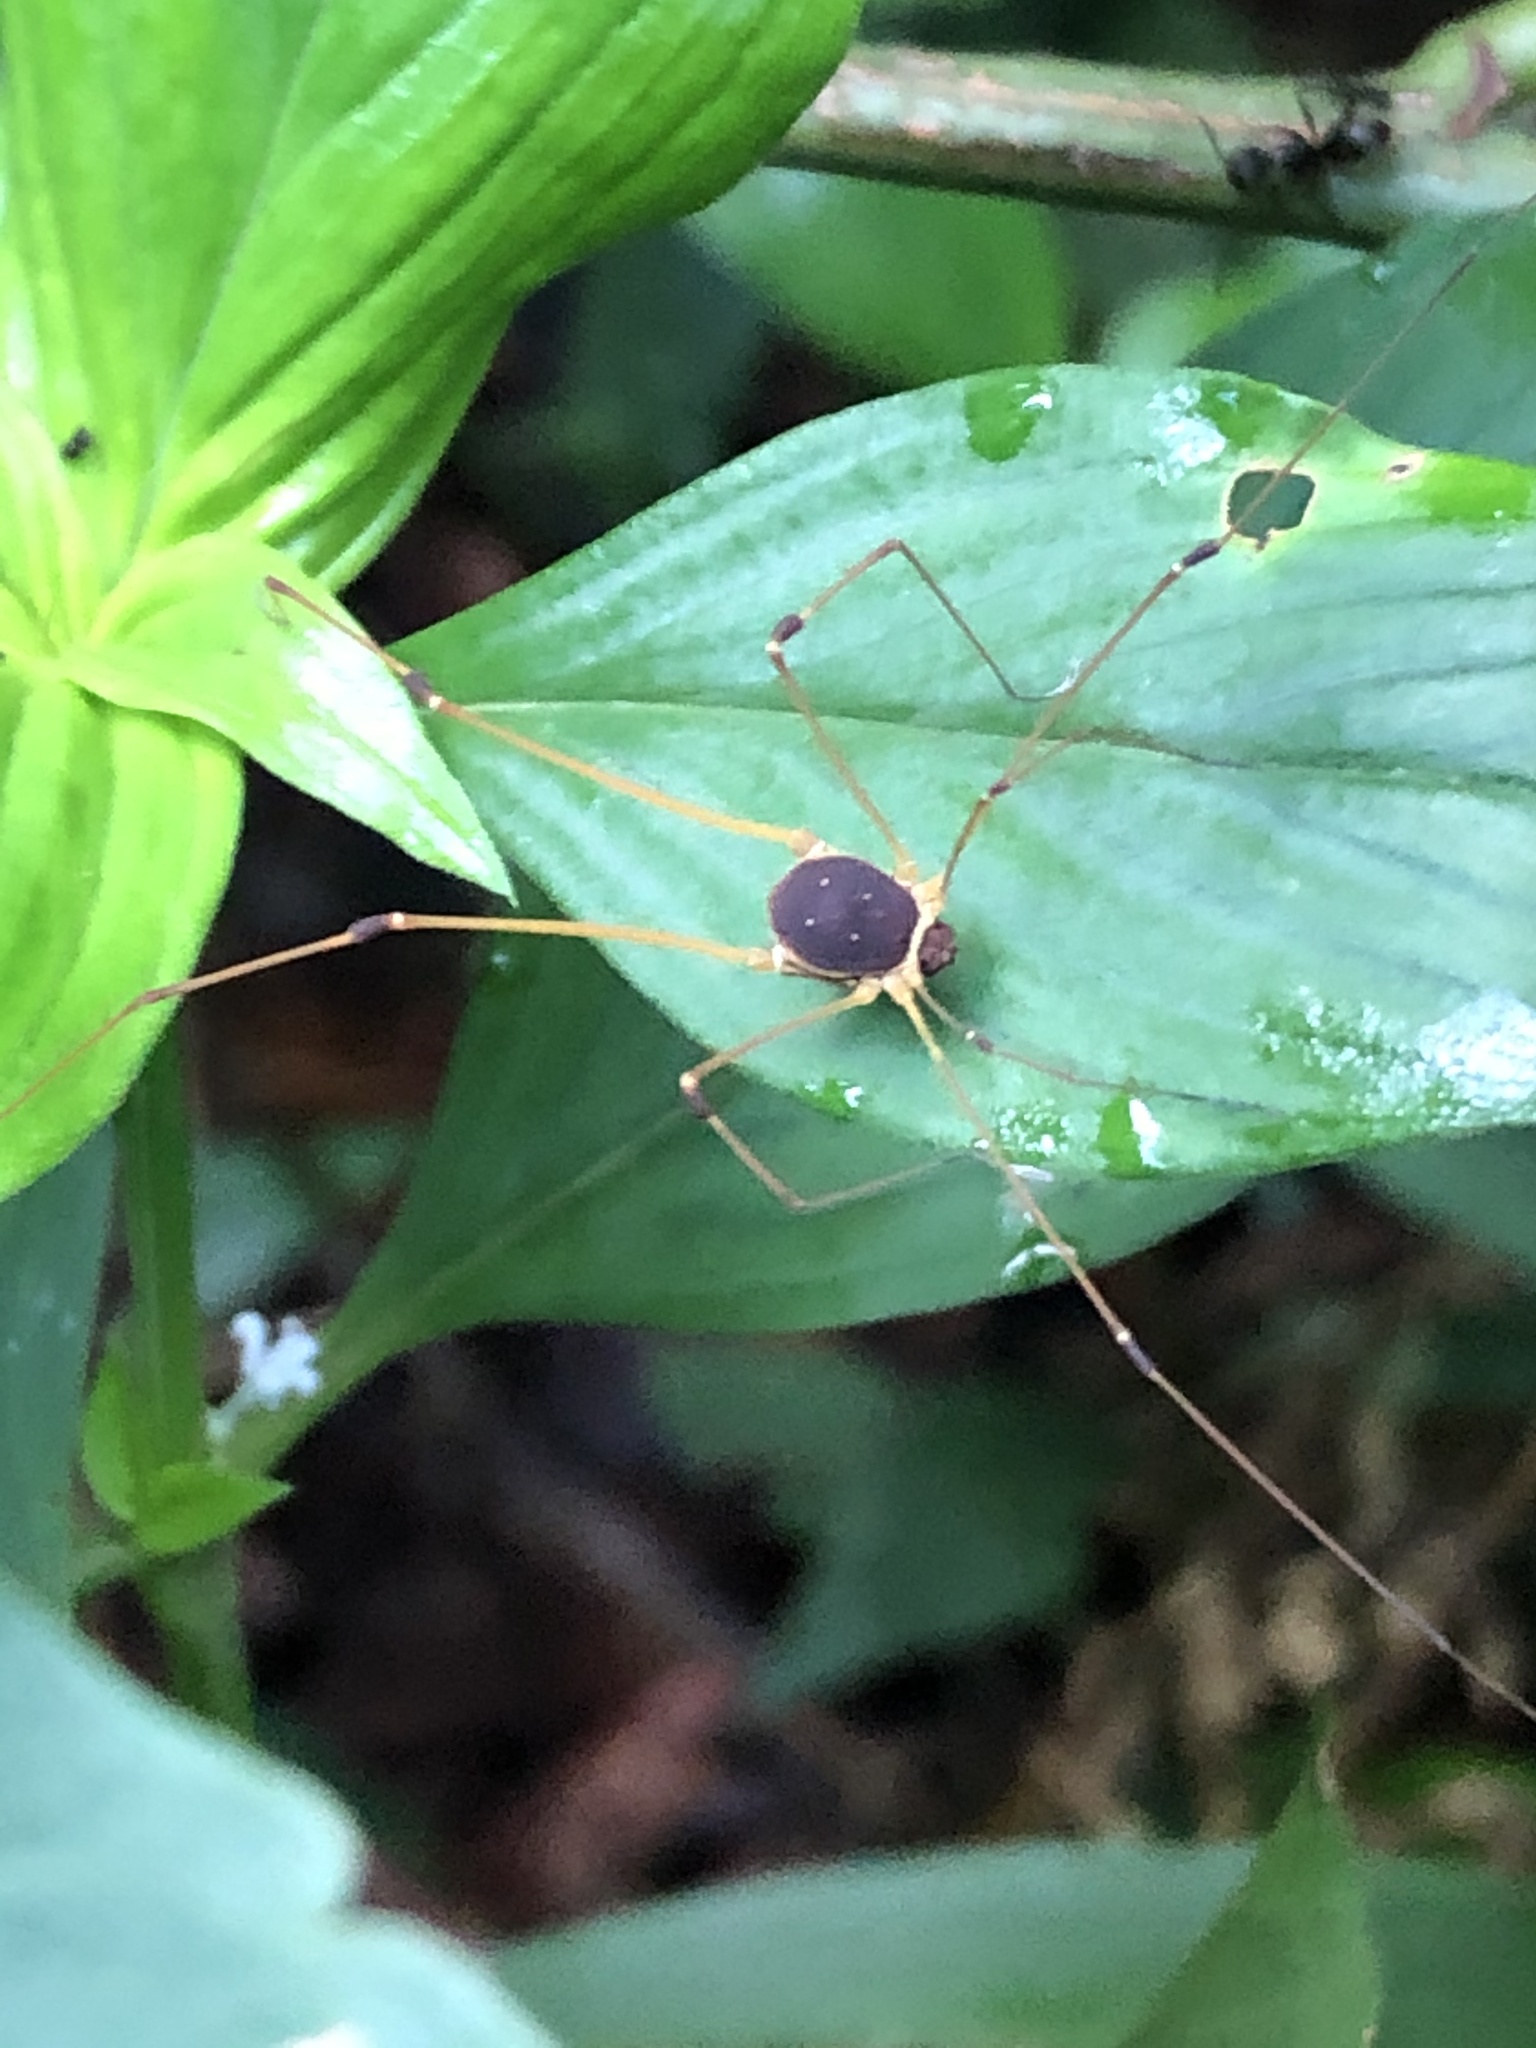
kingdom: Animalia
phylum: Arthropoda
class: Arachnida
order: Opiliones
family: Cosmetidae
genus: Protus
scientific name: Protus bolivari
